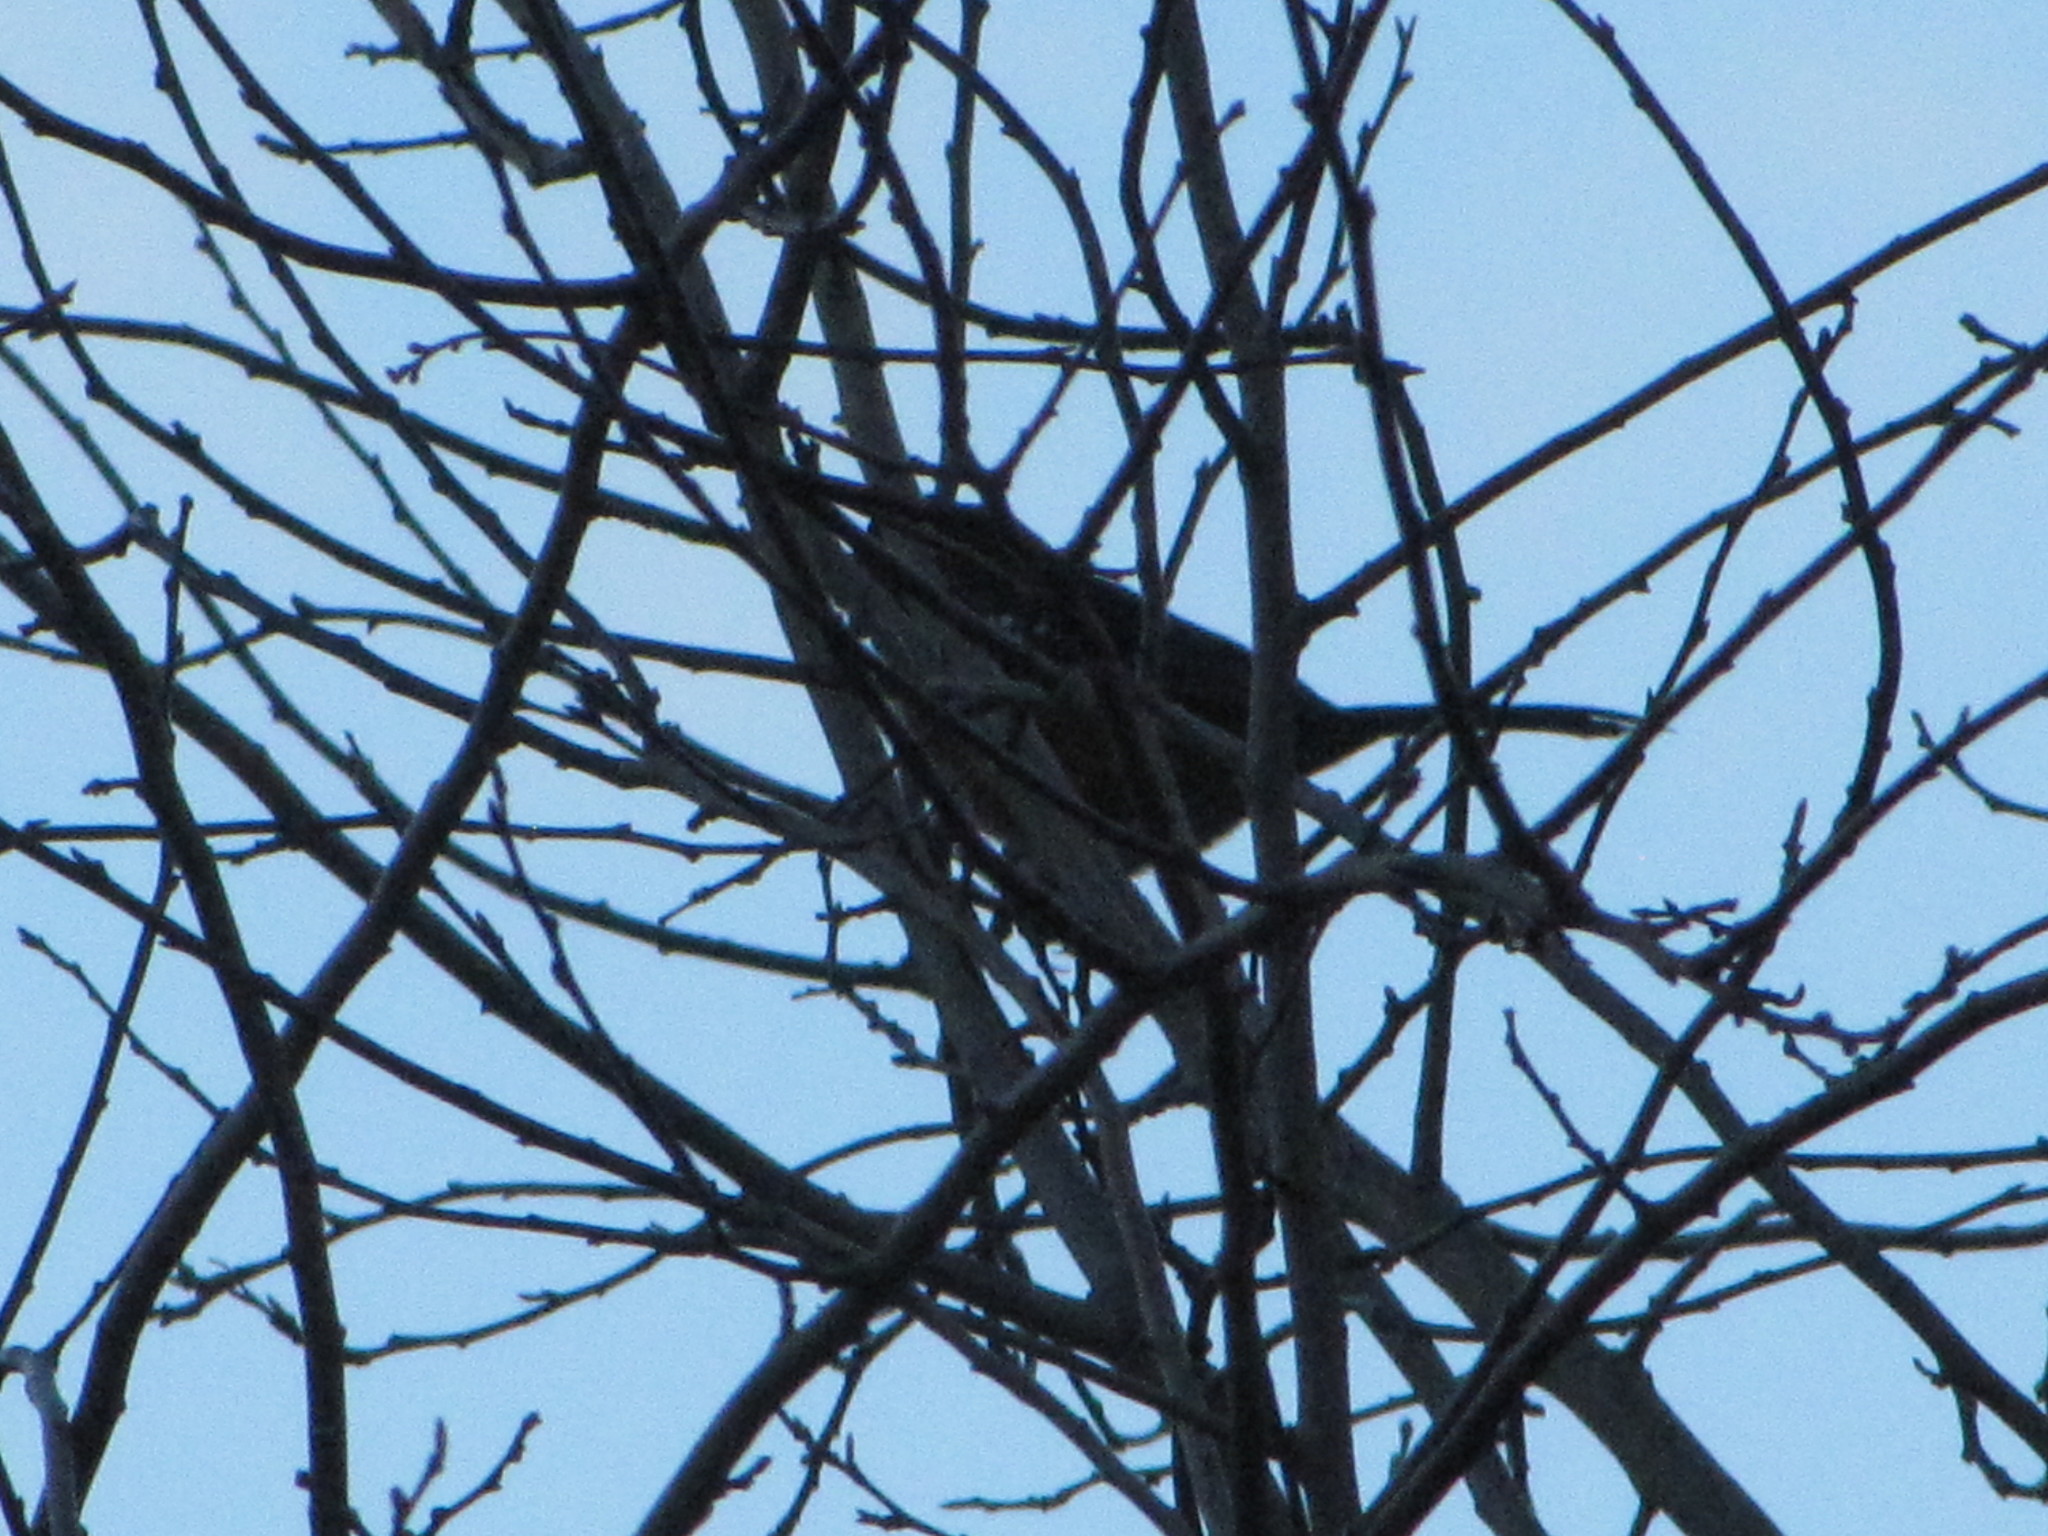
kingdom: Animalia
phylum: Chordata
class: Aves
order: Passeriformes
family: Passerellidae
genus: Pipilo
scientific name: Pipilo maculatus
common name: Spotted towhee
